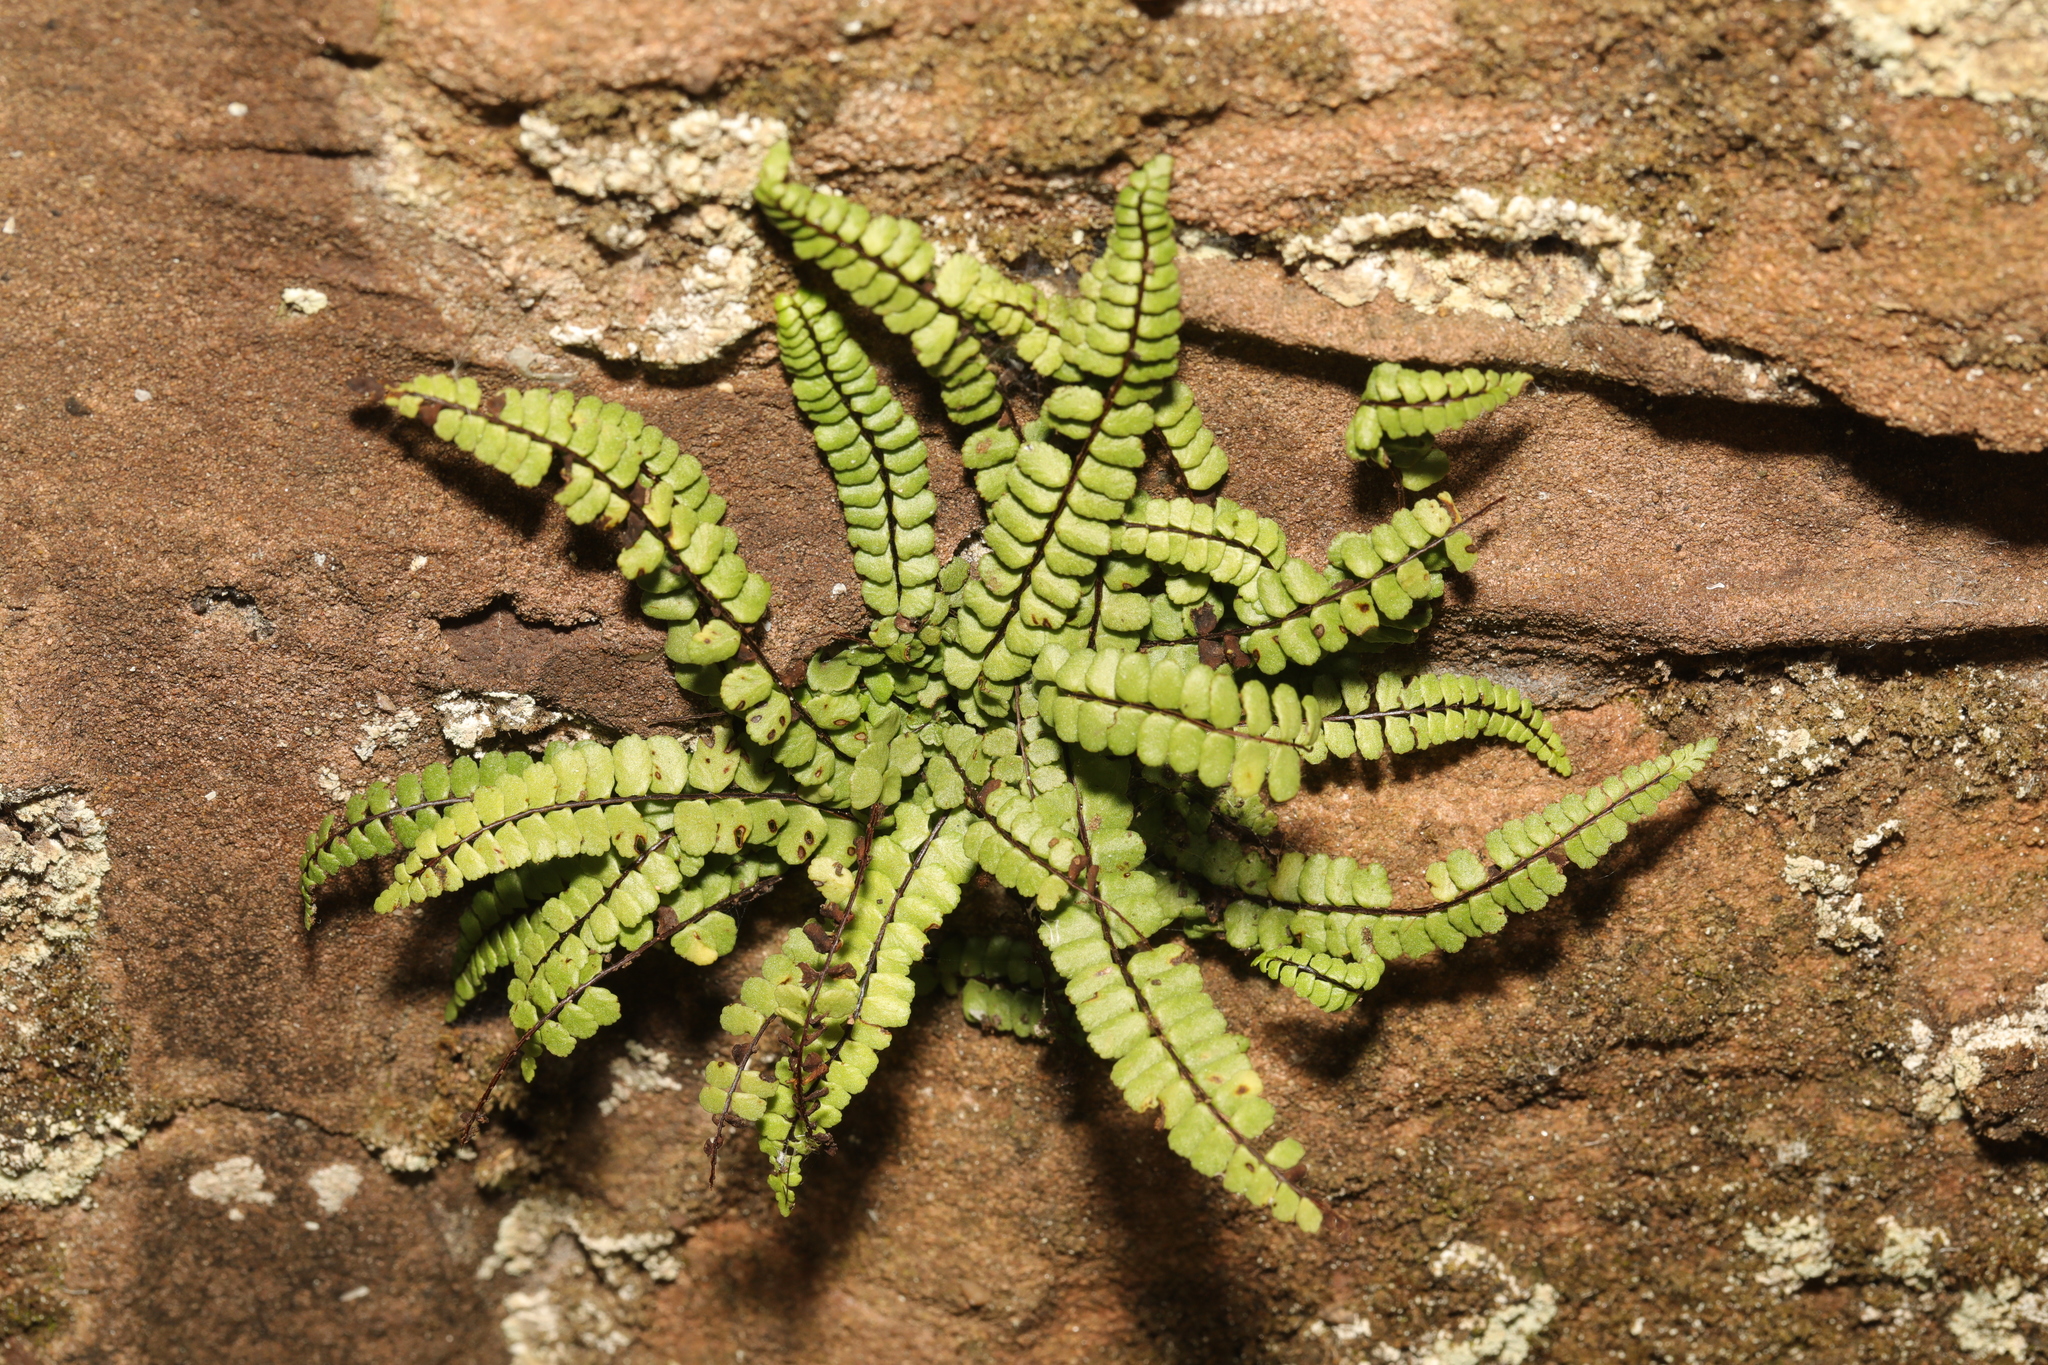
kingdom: Plantae
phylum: Tracheophyta
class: Polypodiopsida
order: Polypodiales
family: Aspleniaceae
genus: Asplenium
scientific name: Asplenium trichomanes
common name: Maidenhair spleenwort
